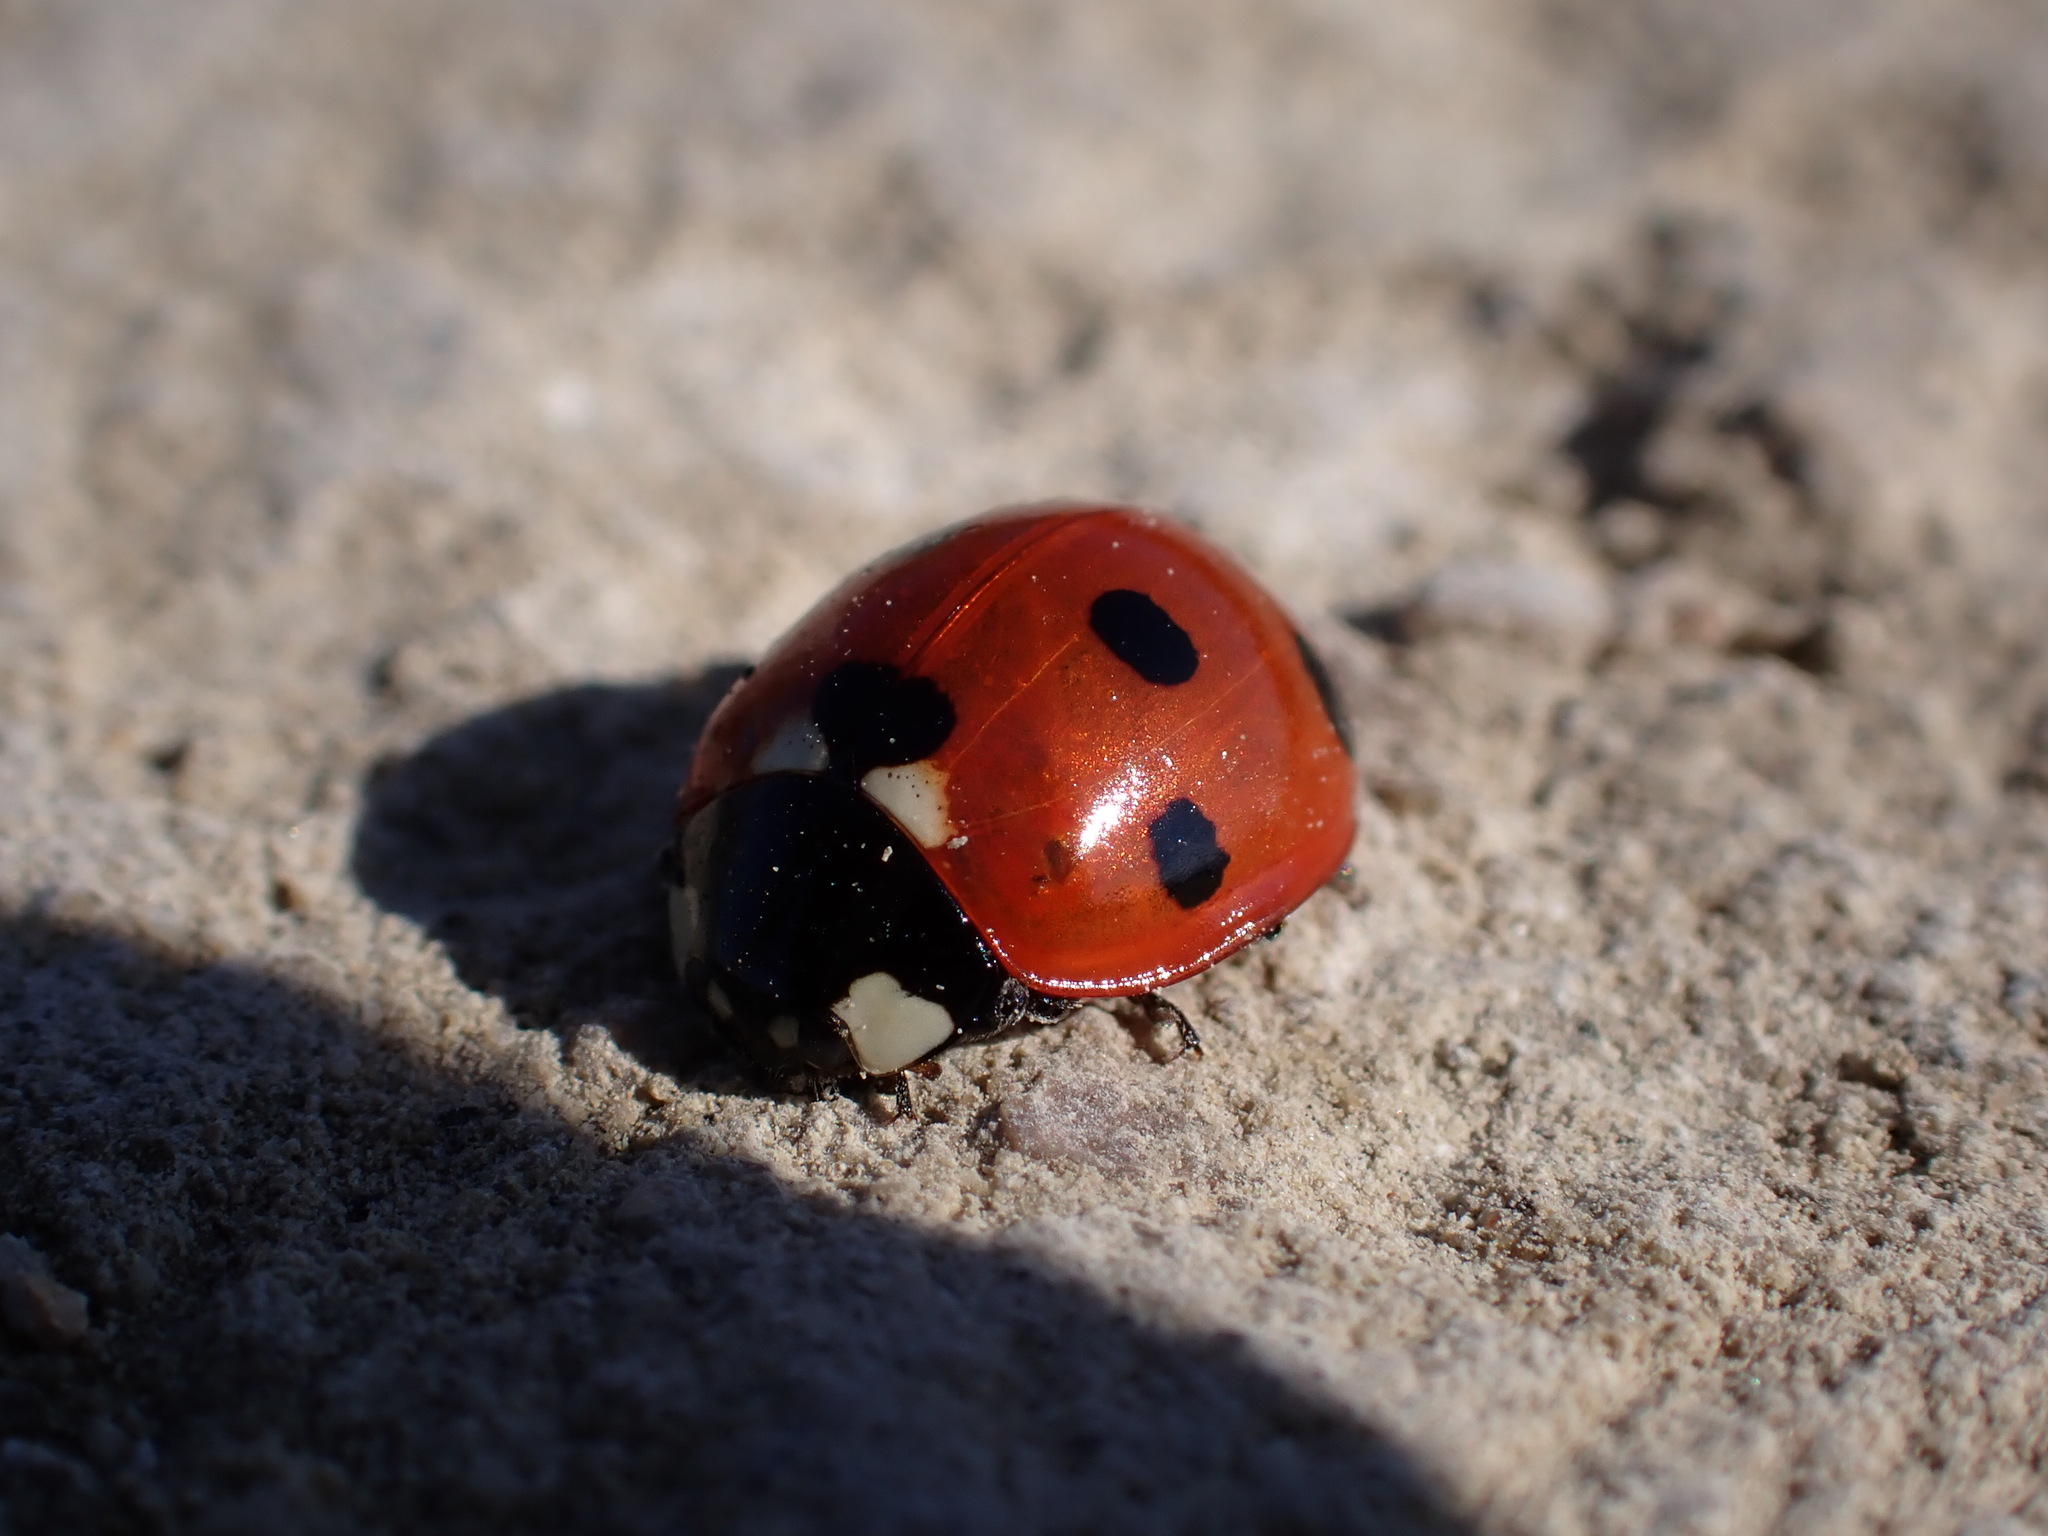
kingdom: Animalia
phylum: Arthropoda
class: Insecta
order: Coleoptera
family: Coccinellidae
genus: Coccinella
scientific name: Coccinella septempunctata
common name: Sevenspotted lady beetle
